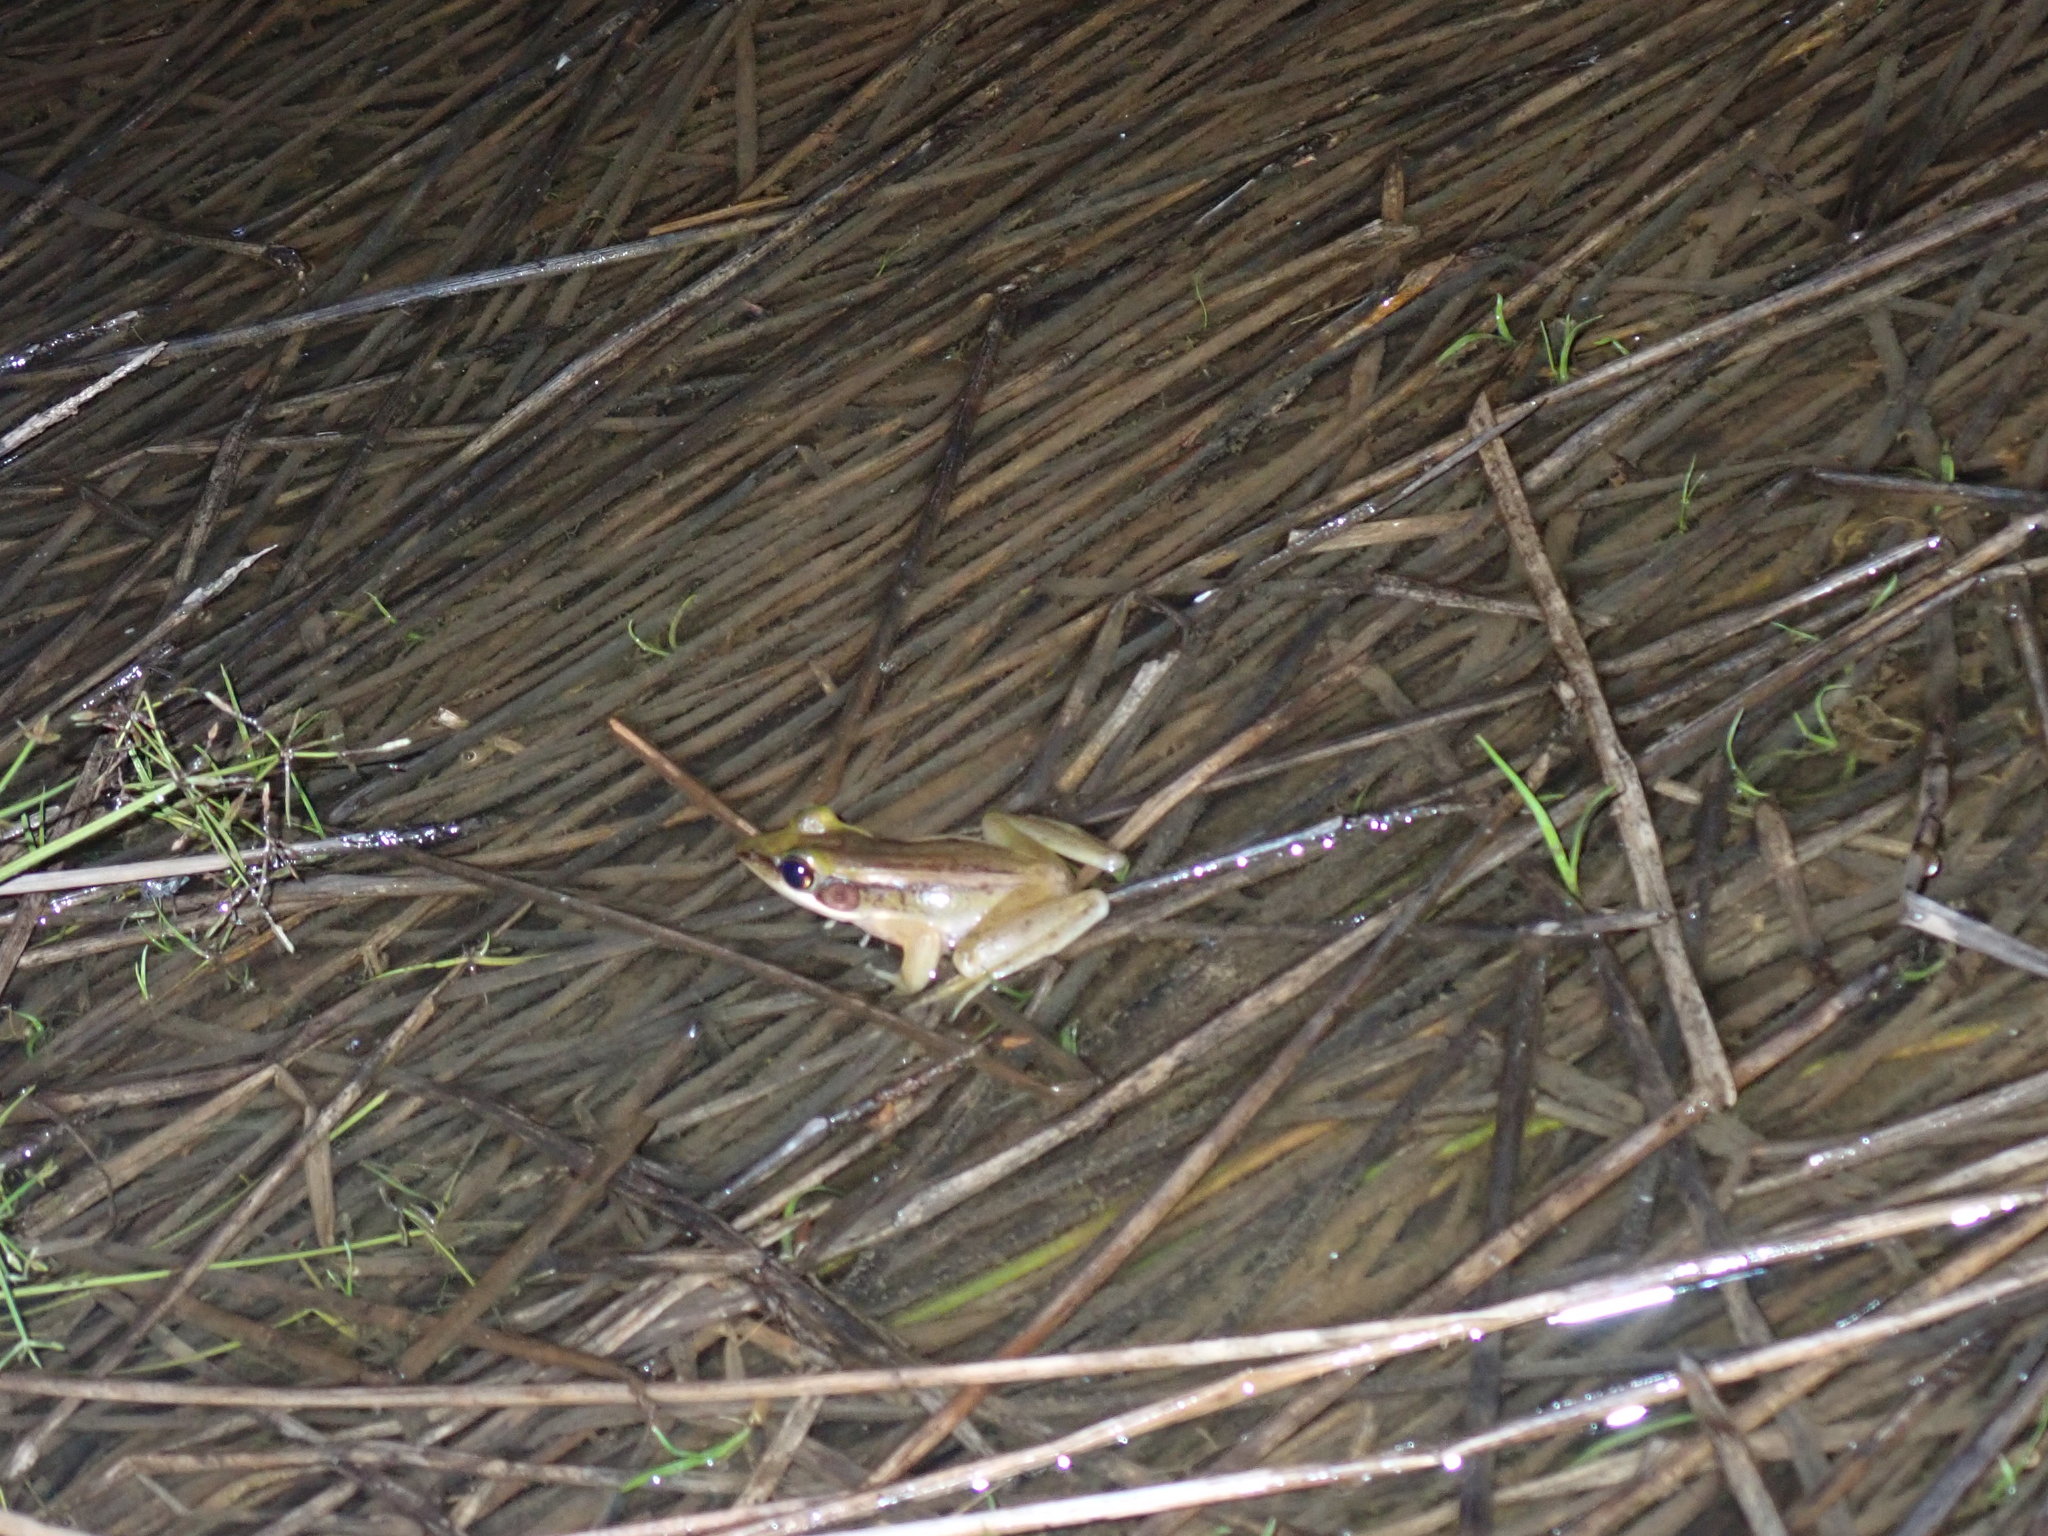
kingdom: Animalia
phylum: Chordata
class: Amphibia
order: Anura
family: Ranidae
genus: Hylarana
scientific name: Hylarana erythraea
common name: Common green frog/green paddy frog/leaf frog
